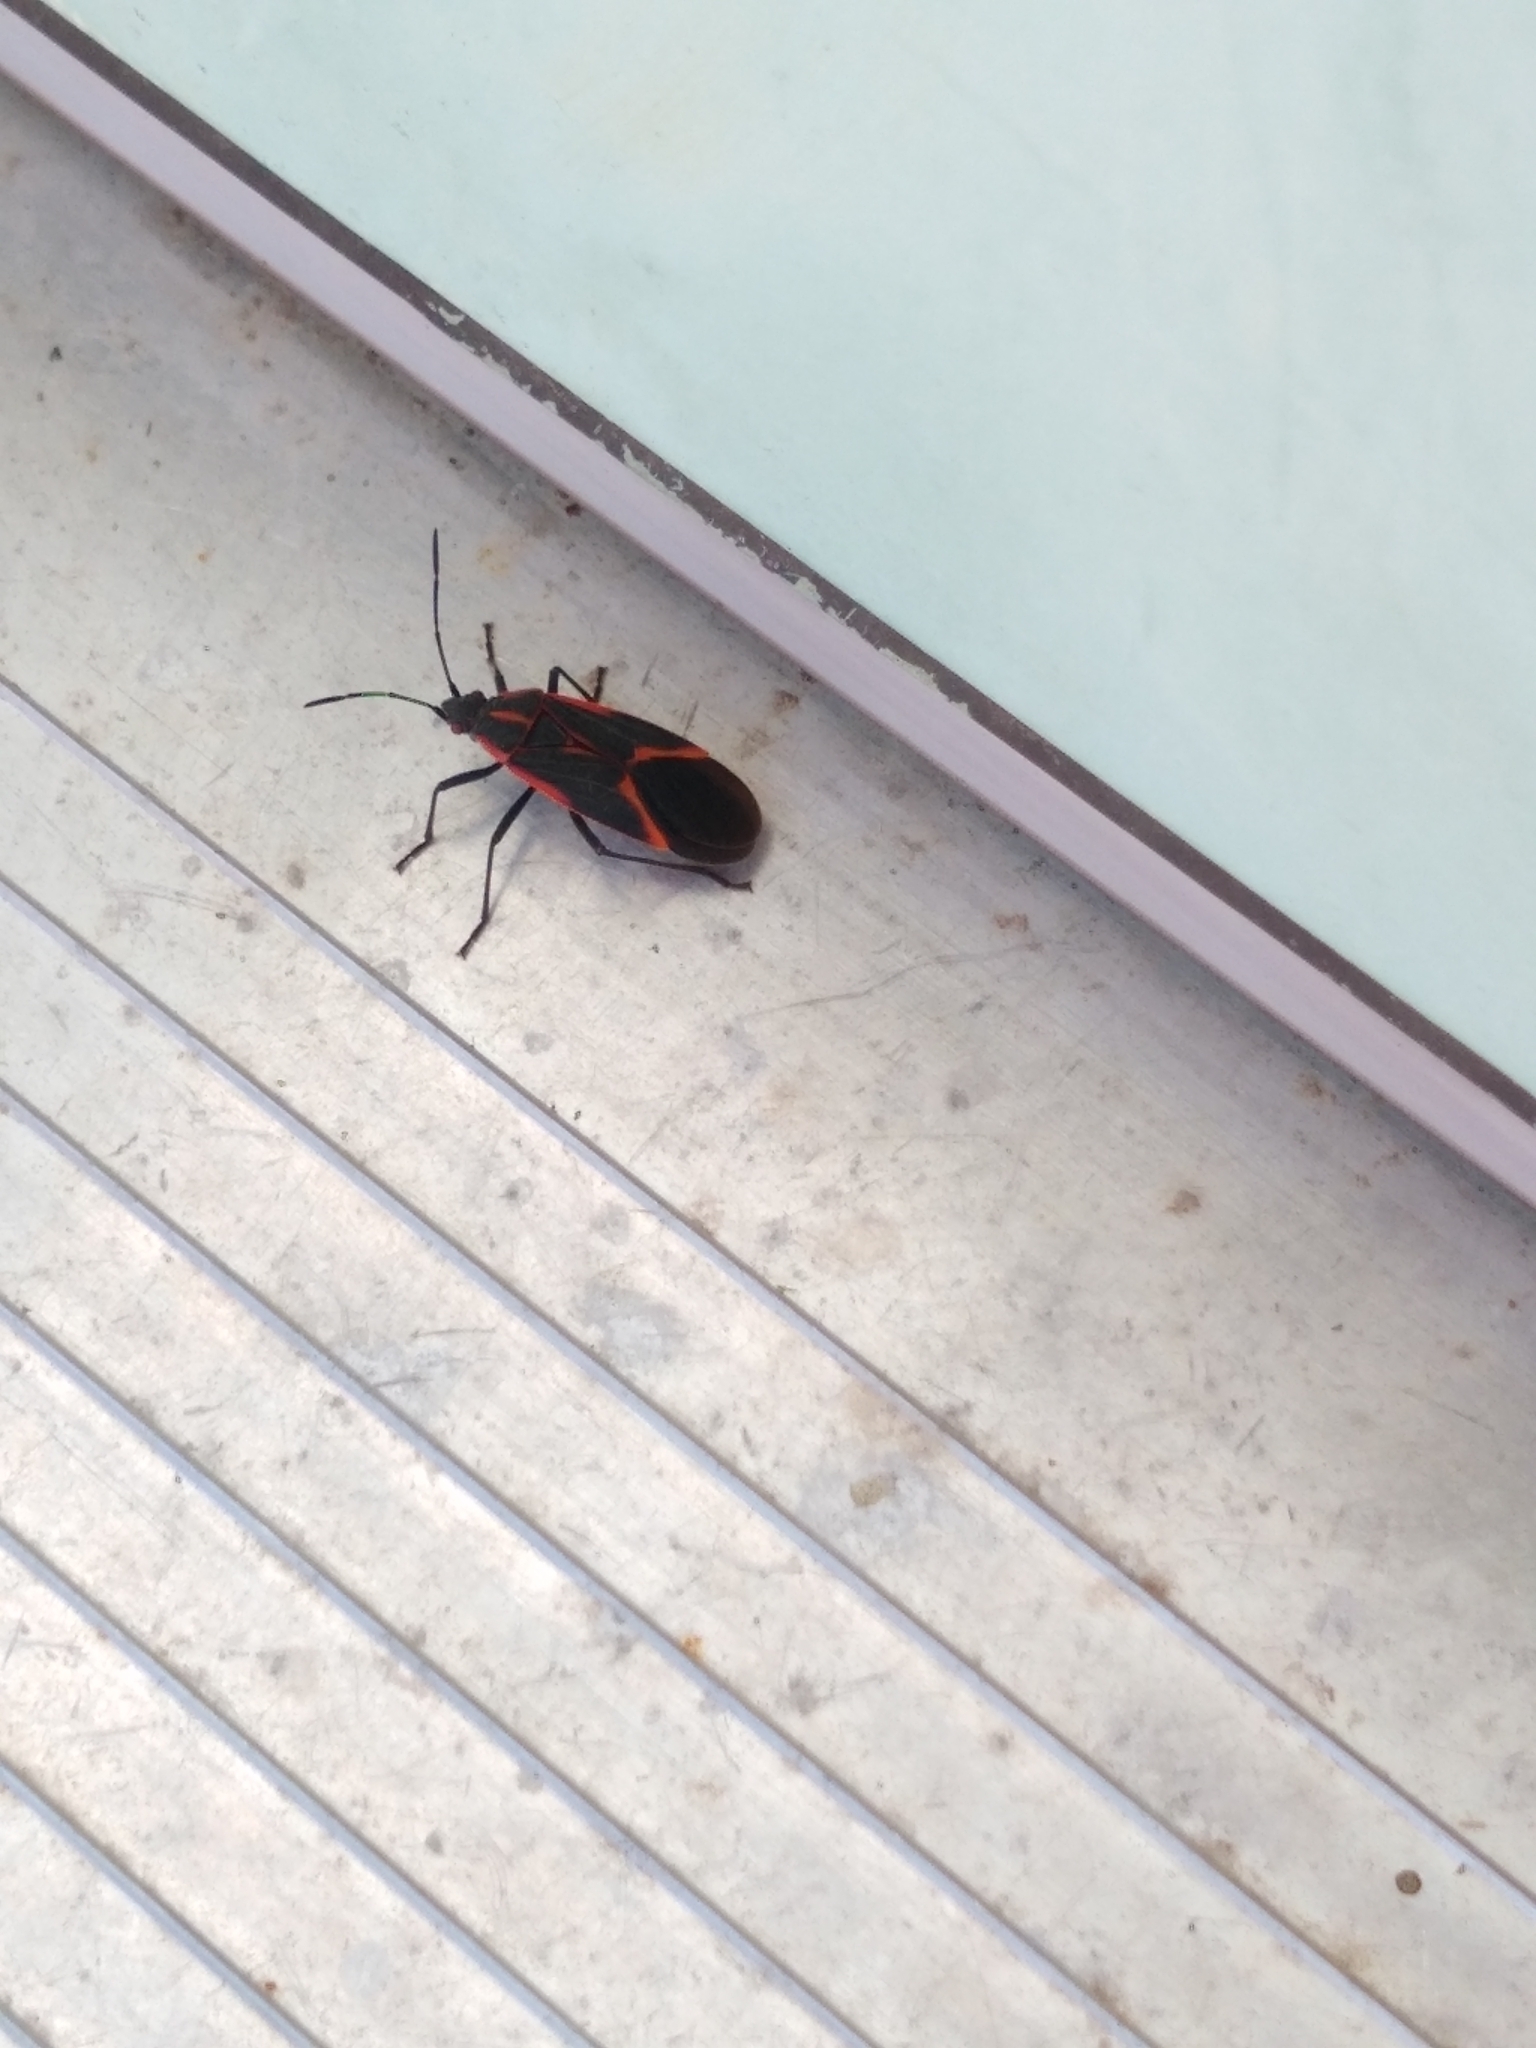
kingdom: Animalia
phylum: Arthropoda
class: Insecta
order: Hemiptera
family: Rhopalidae
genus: Boisea
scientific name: Boisea trivittata
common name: Boxelder bug
